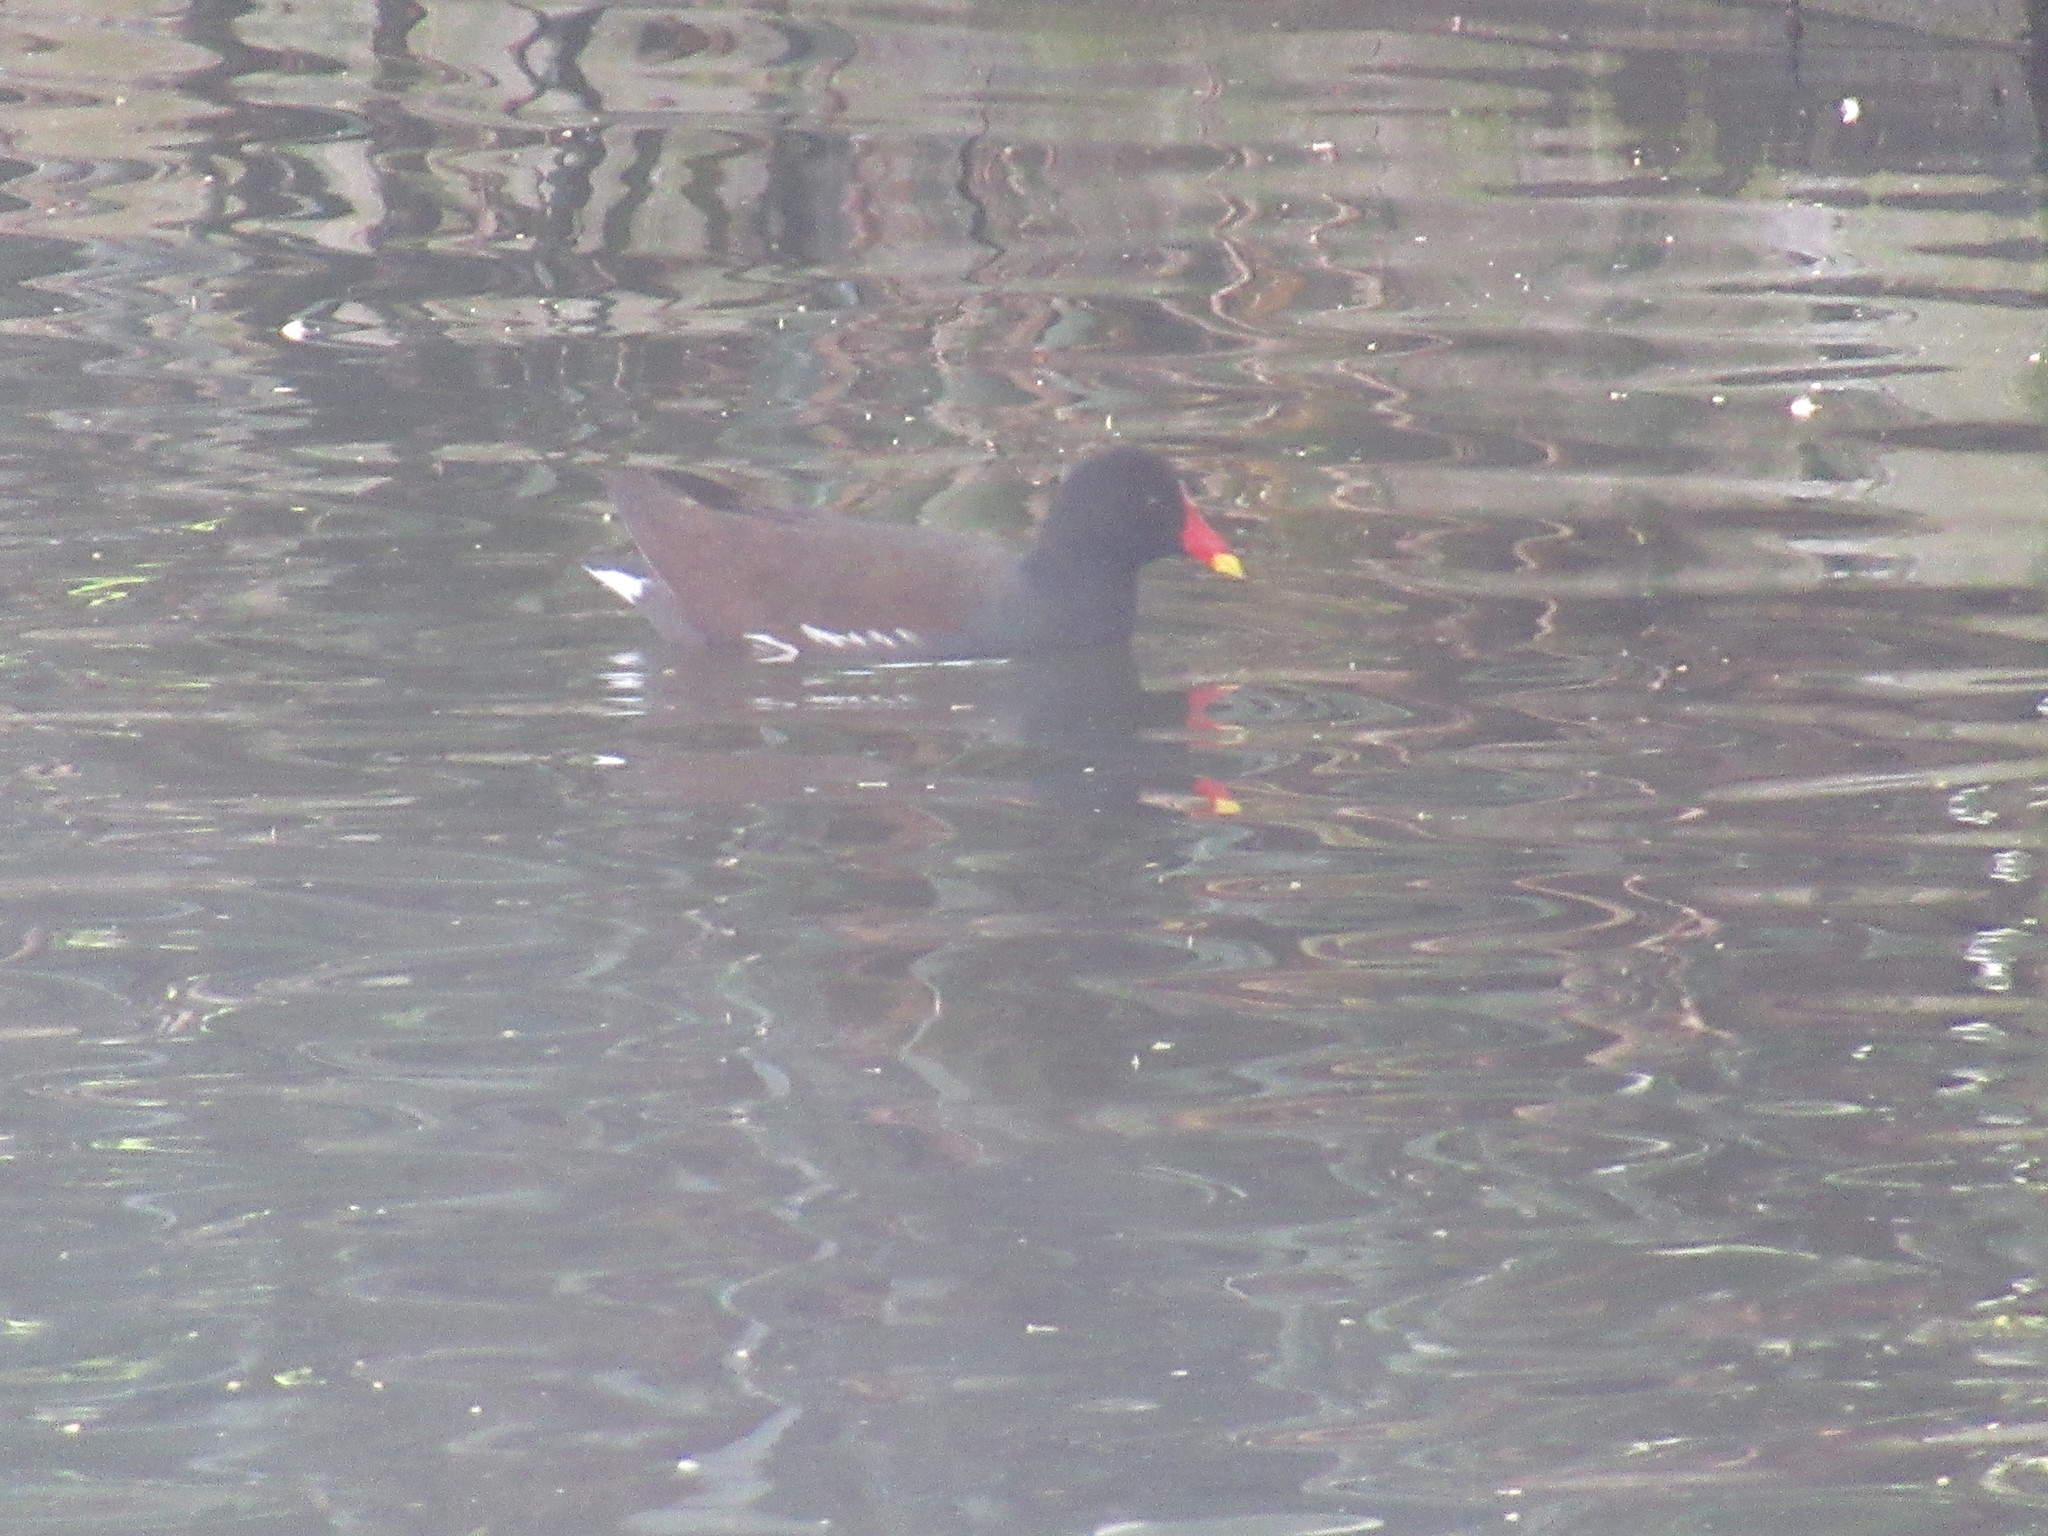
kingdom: Animalia
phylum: Chordata
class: Aves
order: Gruiformes
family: Rallidae
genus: Gallinula
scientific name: Gallinula chloropus
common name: Common moorhen
